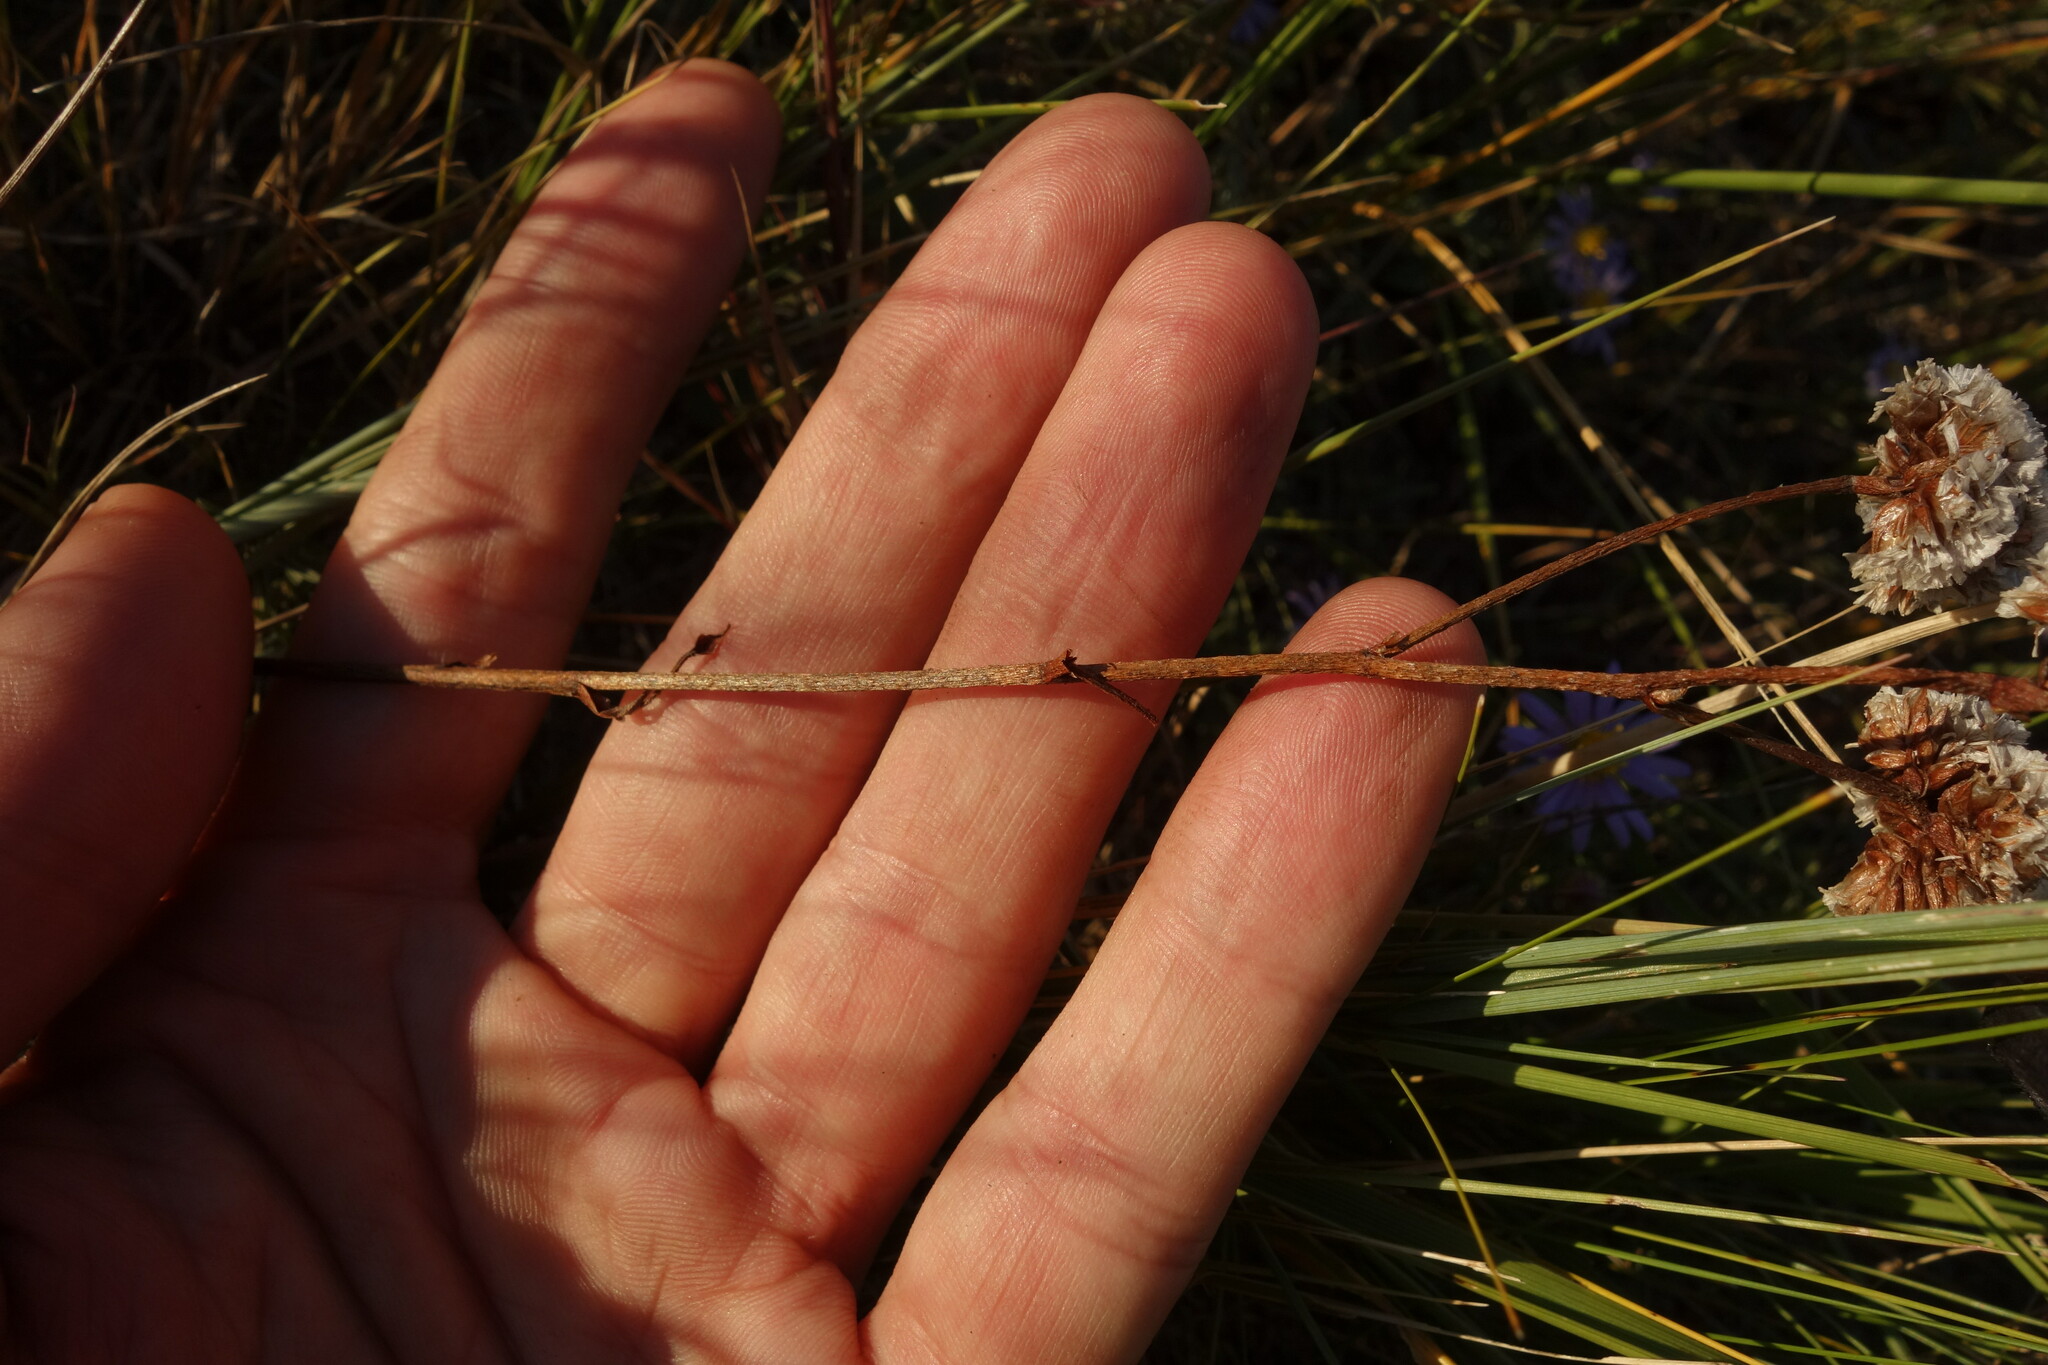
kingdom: Plantae
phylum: Tracheophyta
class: Magnoliopsida
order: Caryophyllales
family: Plumbaginaceae
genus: Limonium
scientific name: Limonium flexuosum
